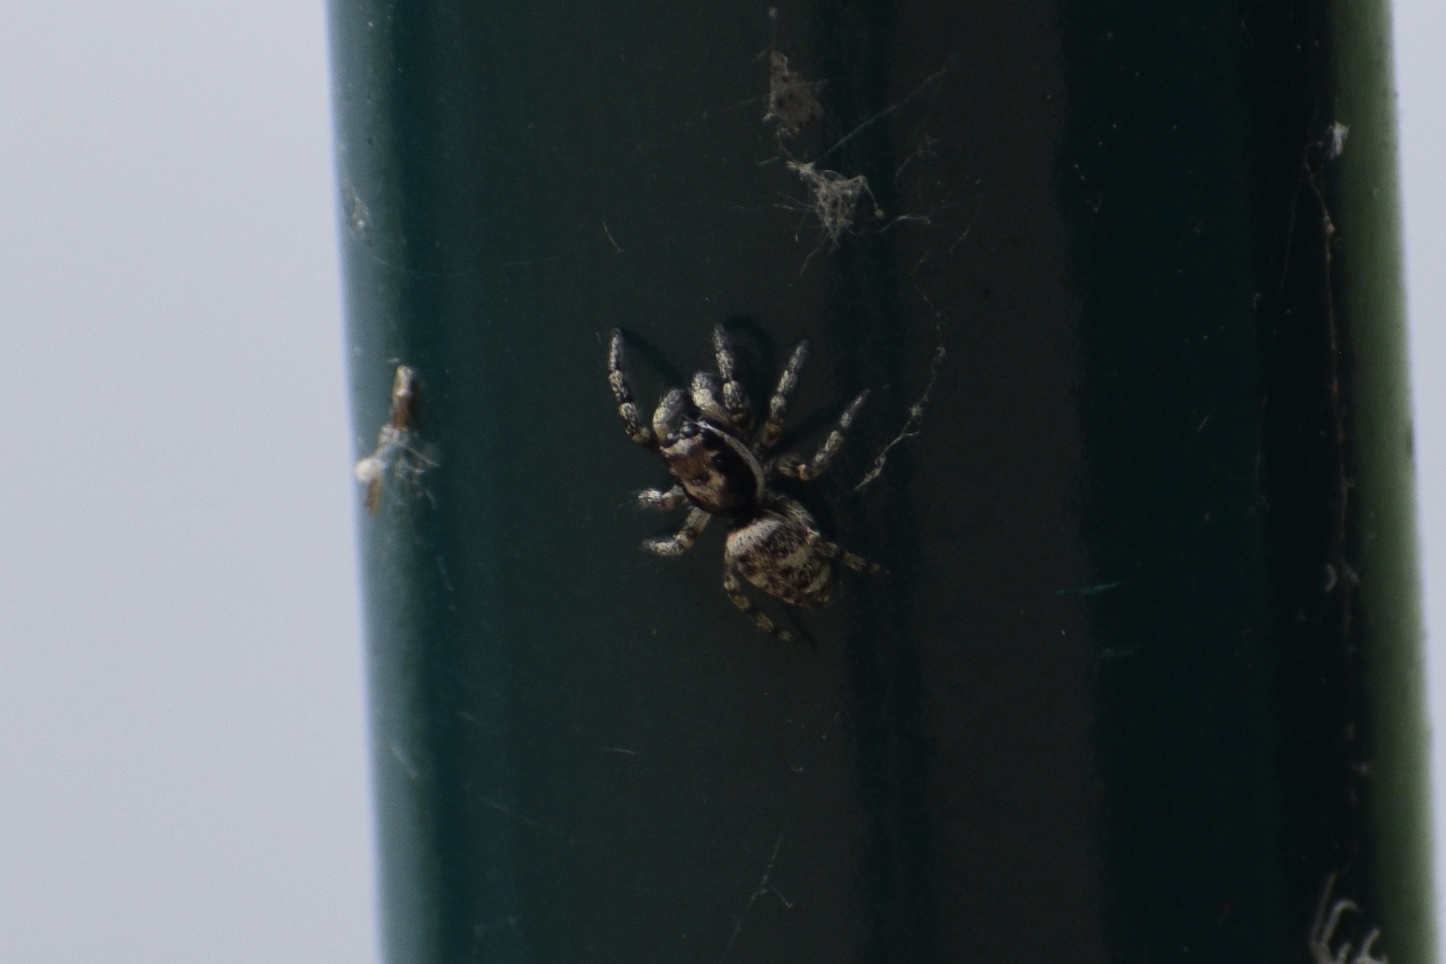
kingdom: Animalia
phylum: Arthropoda
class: Arachnida
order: Araneae
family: Salticidae
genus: Salticus
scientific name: Salticus scenicus
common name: Zebra jumper
